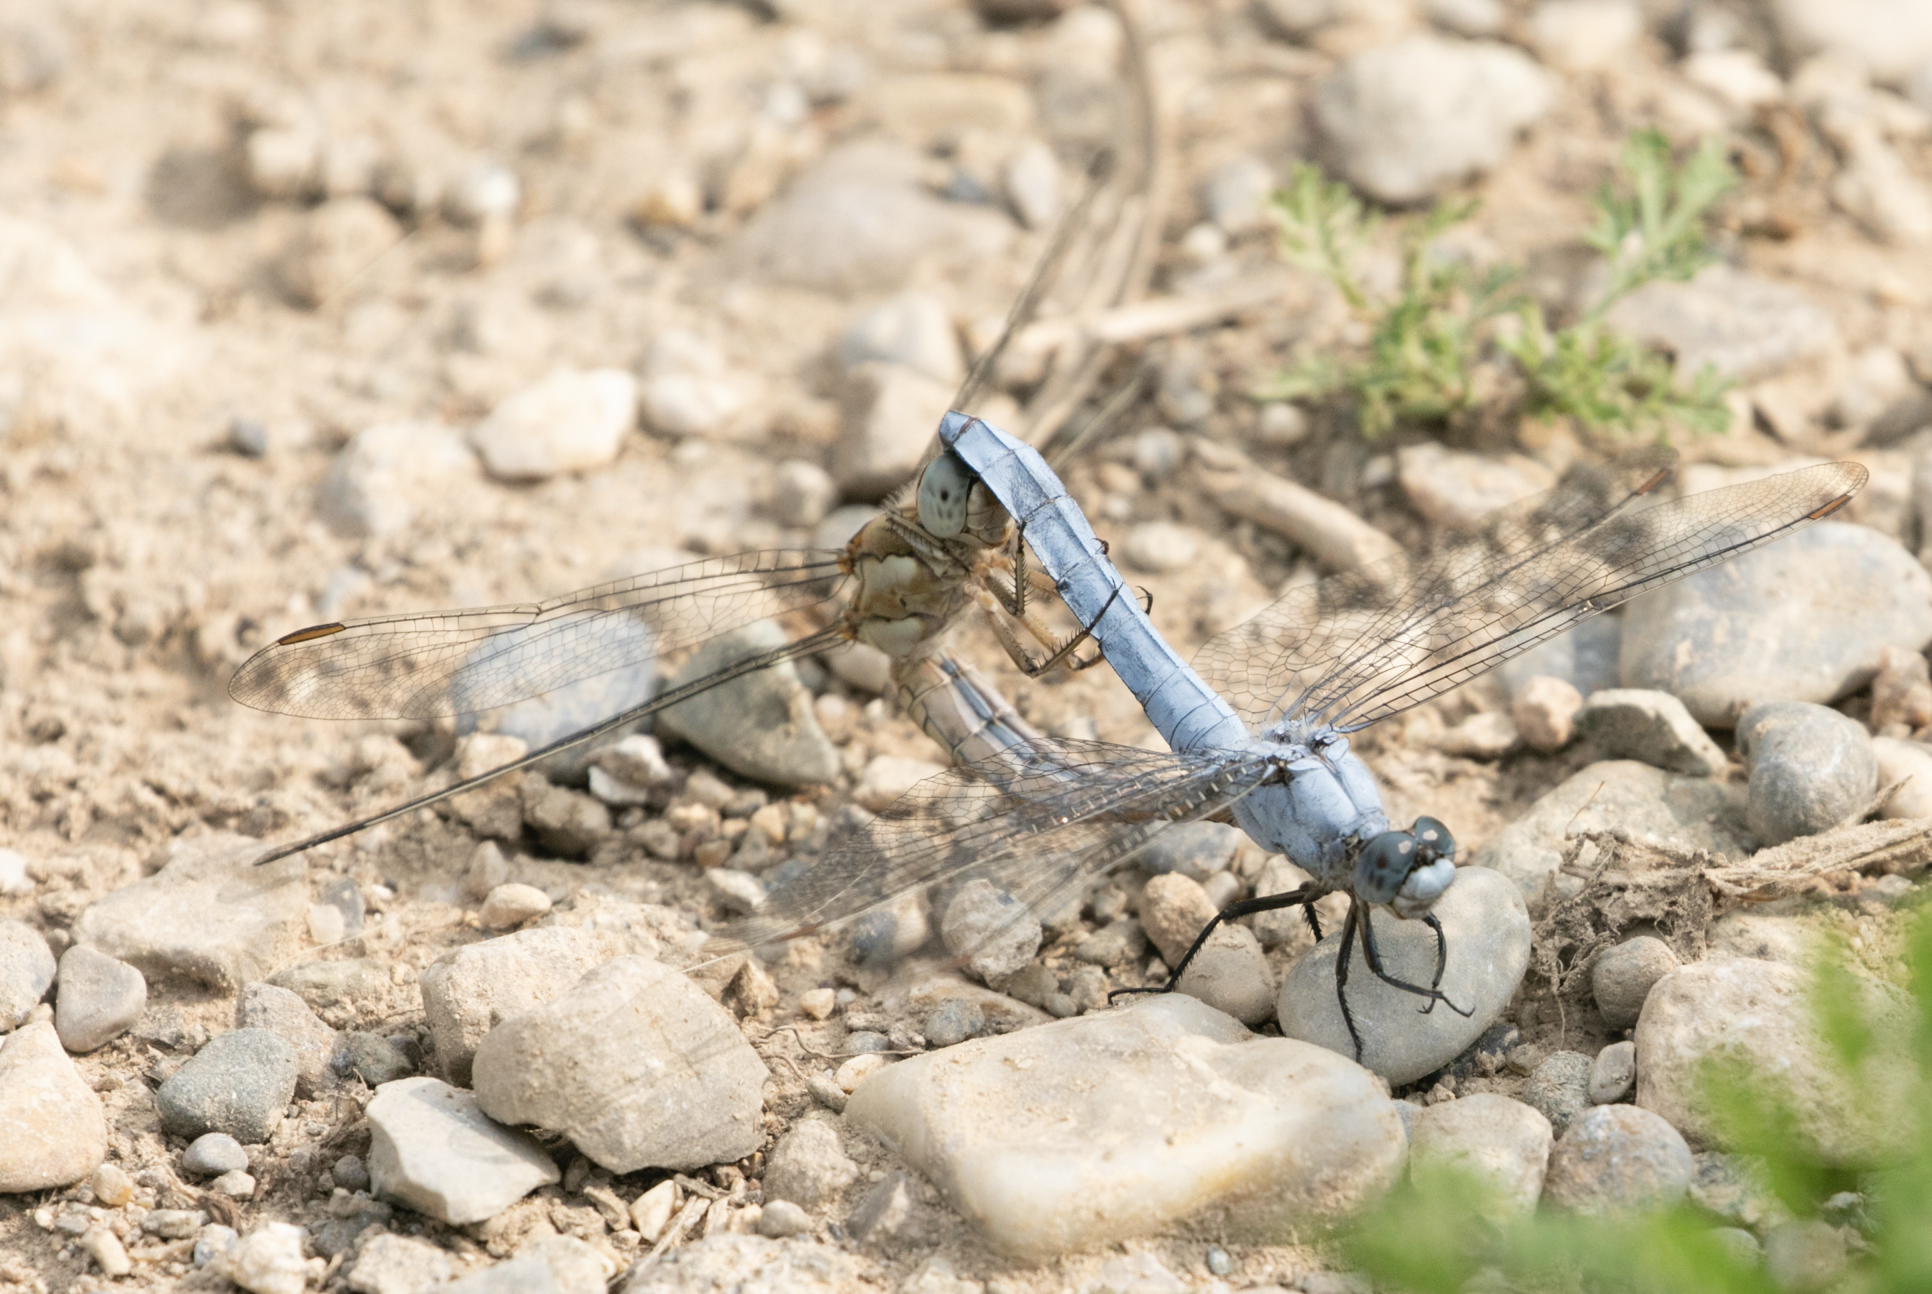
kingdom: Animalia
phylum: Arthropoda
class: Insecta
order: Odonata
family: Libellulidae
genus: Orthetrum
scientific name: Orthetrum brunneum
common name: Southern skimmer
